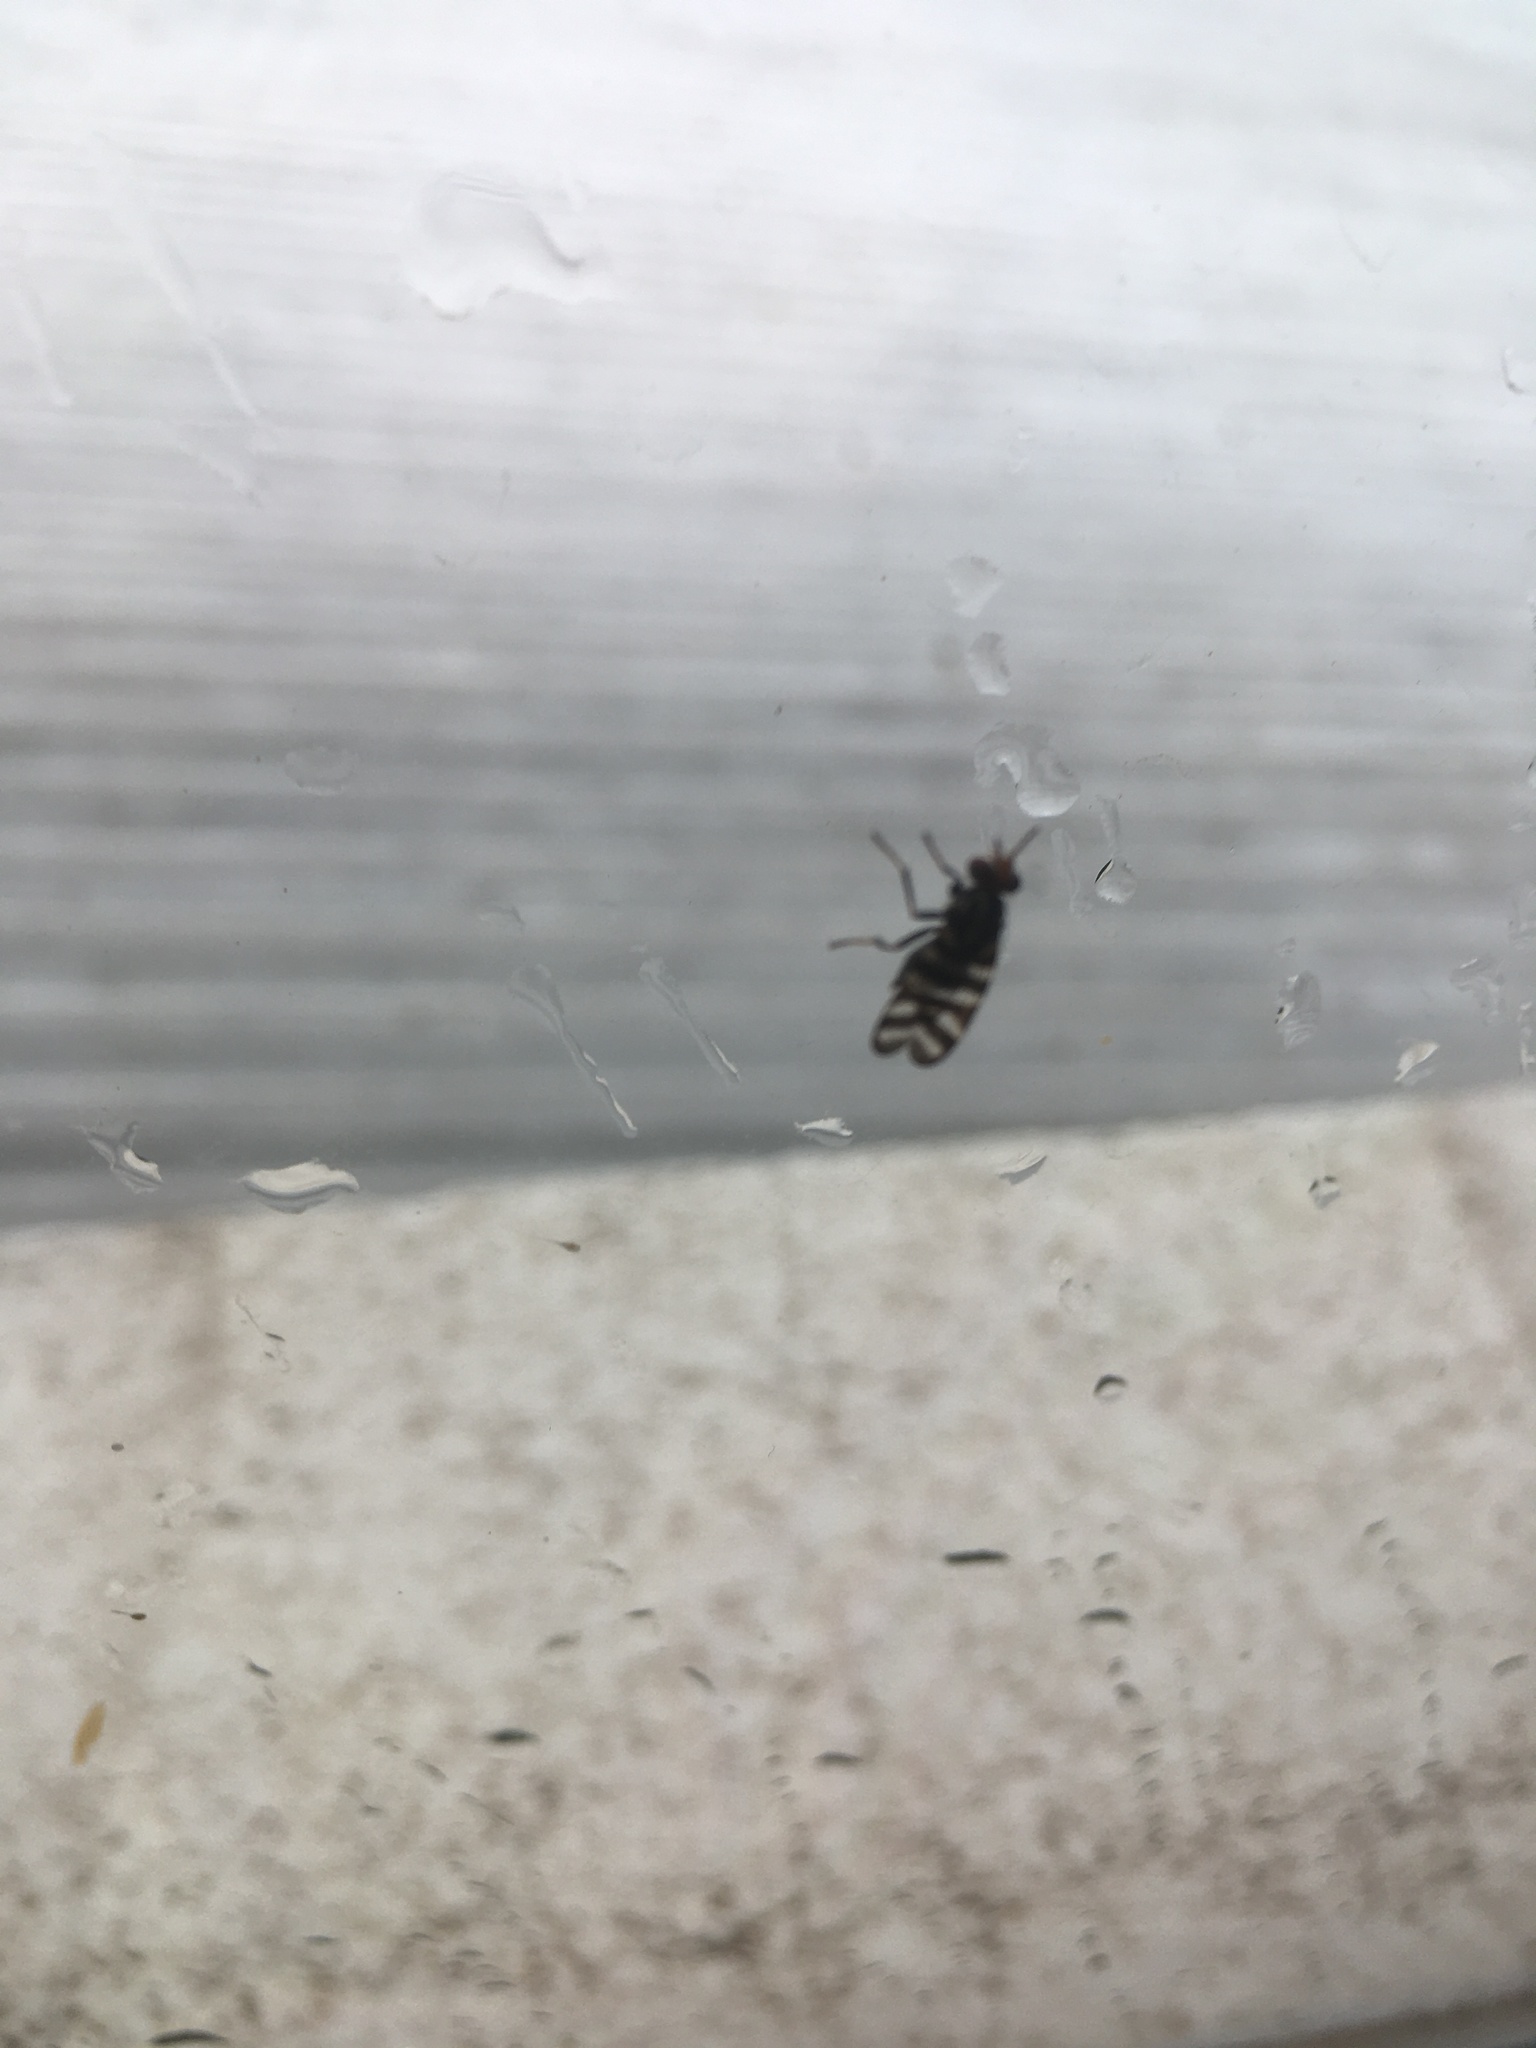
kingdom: Animalia
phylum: Arthropoda
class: Insecta
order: Diptera
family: Ulidiidae
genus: Pterotaenia
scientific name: Pterotaenia fasciata
